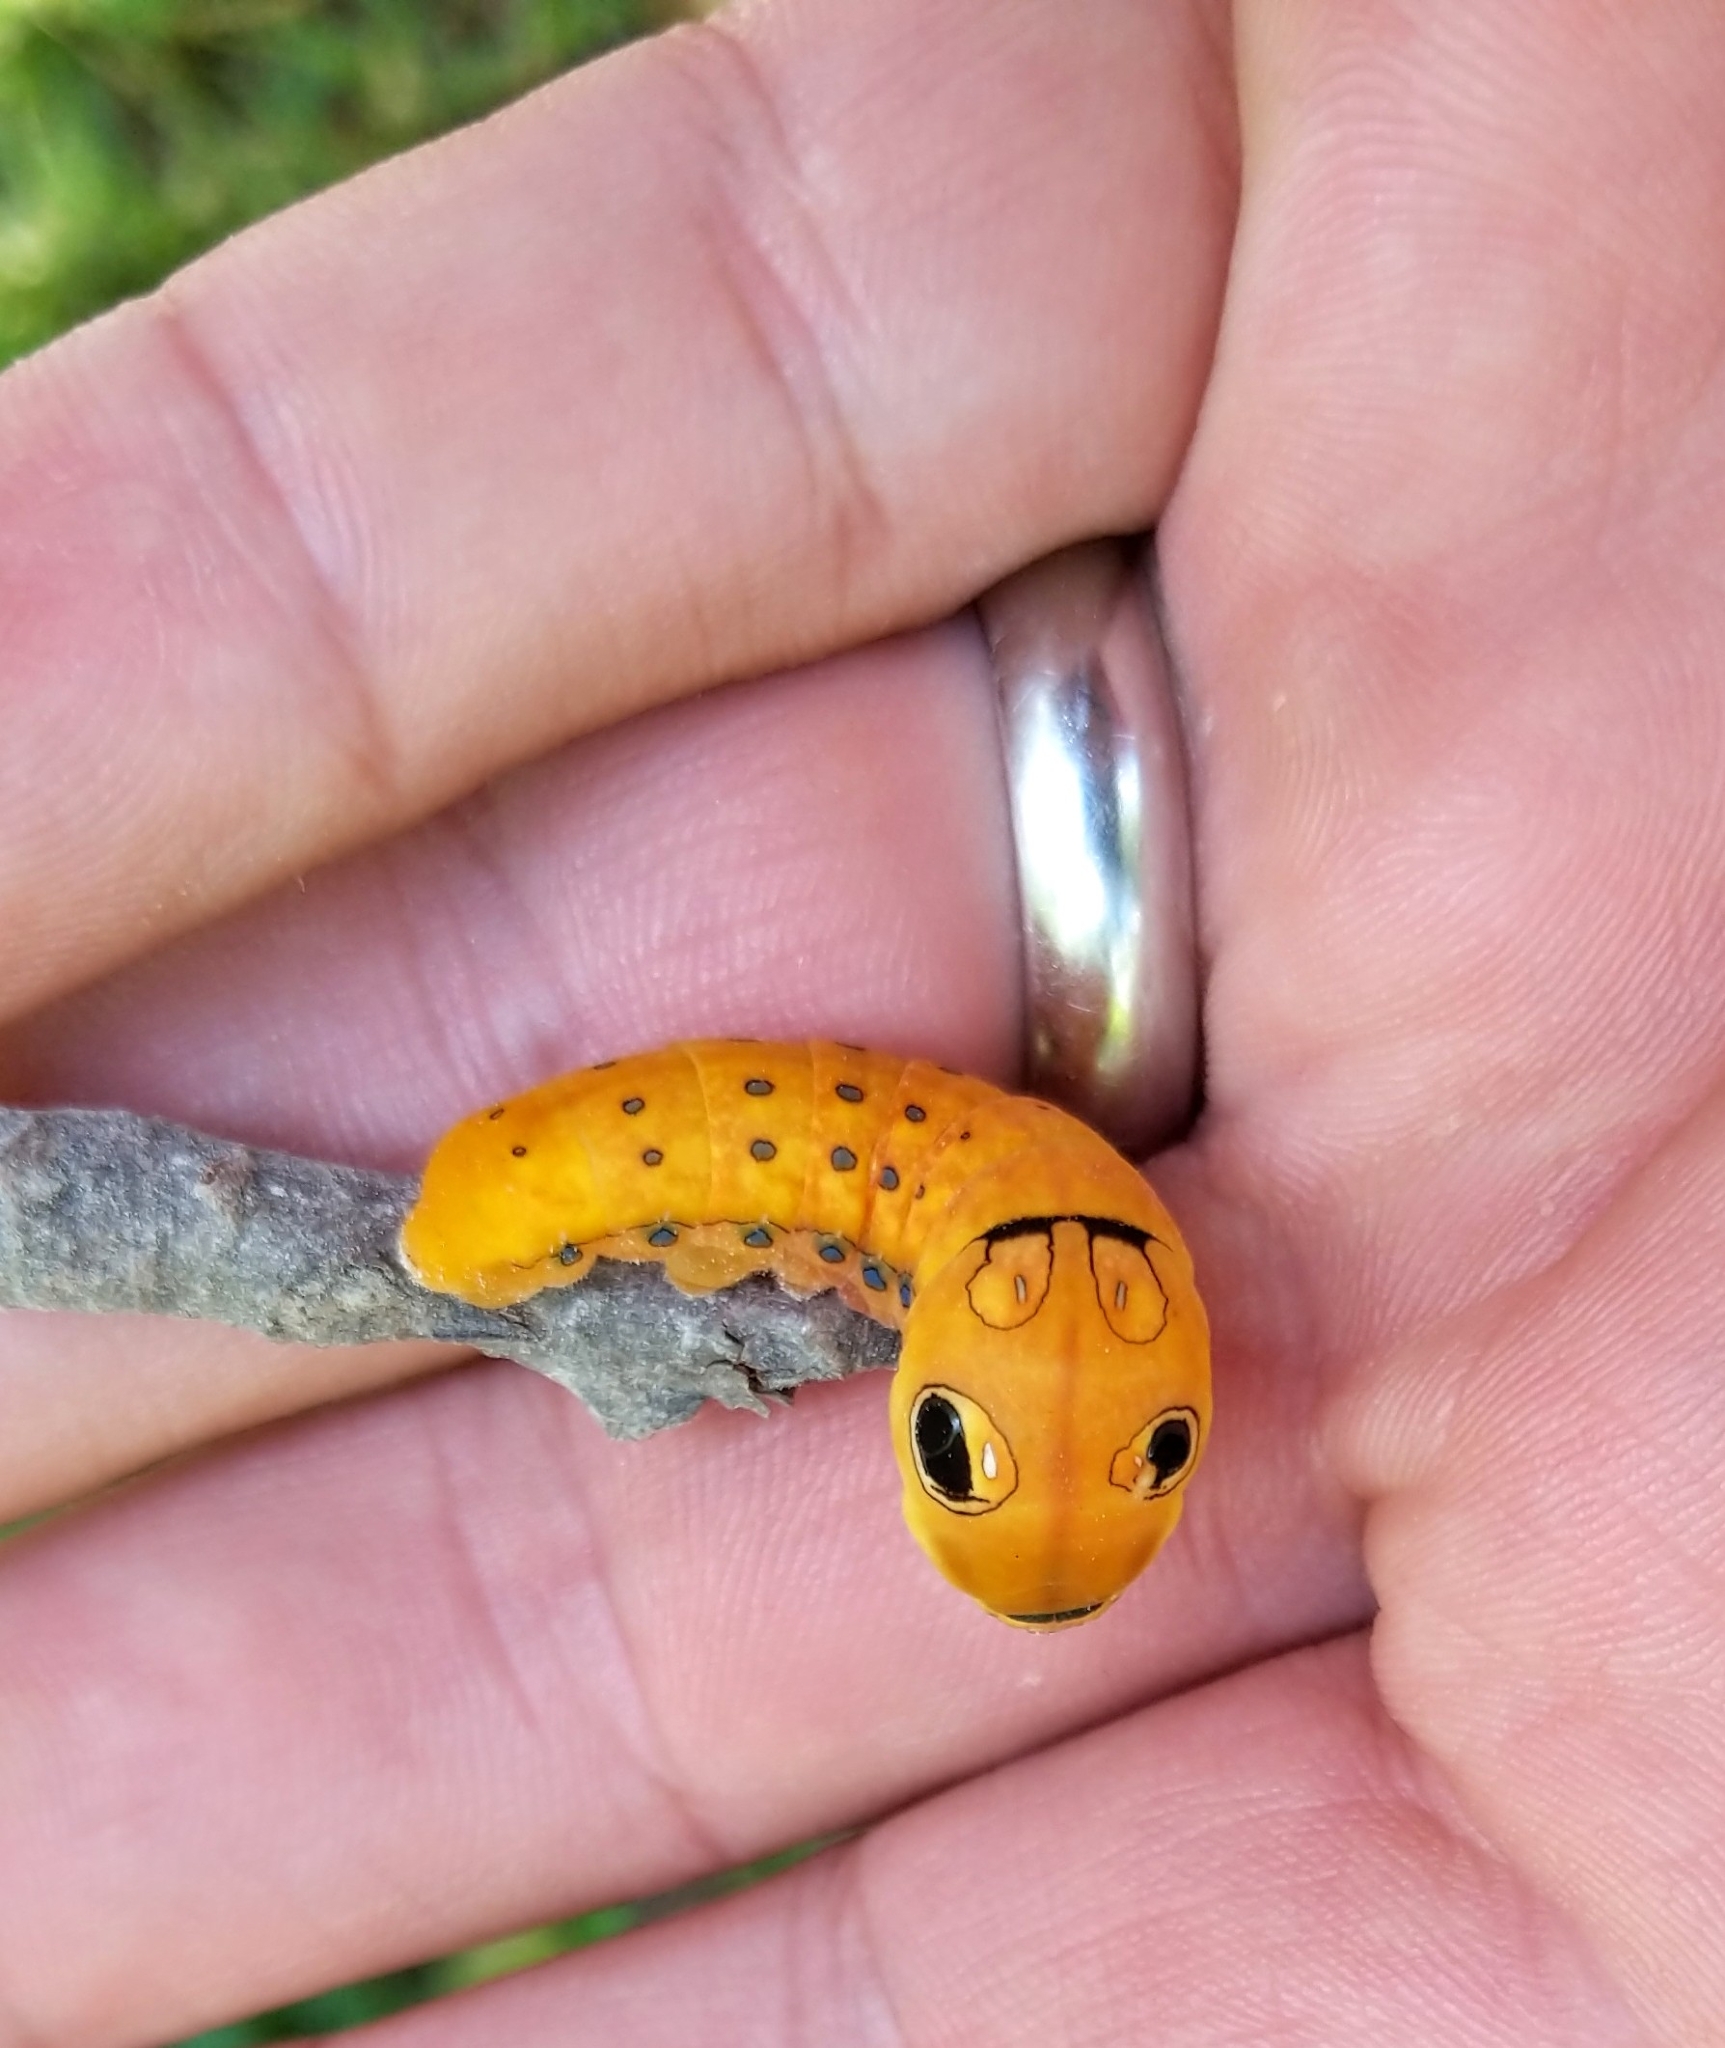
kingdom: Animalia
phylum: Arthropoda
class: Insecta
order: Lepidoptera
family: Papilionidae
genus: Papilio
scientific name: Papilio troilus
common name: Spicebush swallowtail
